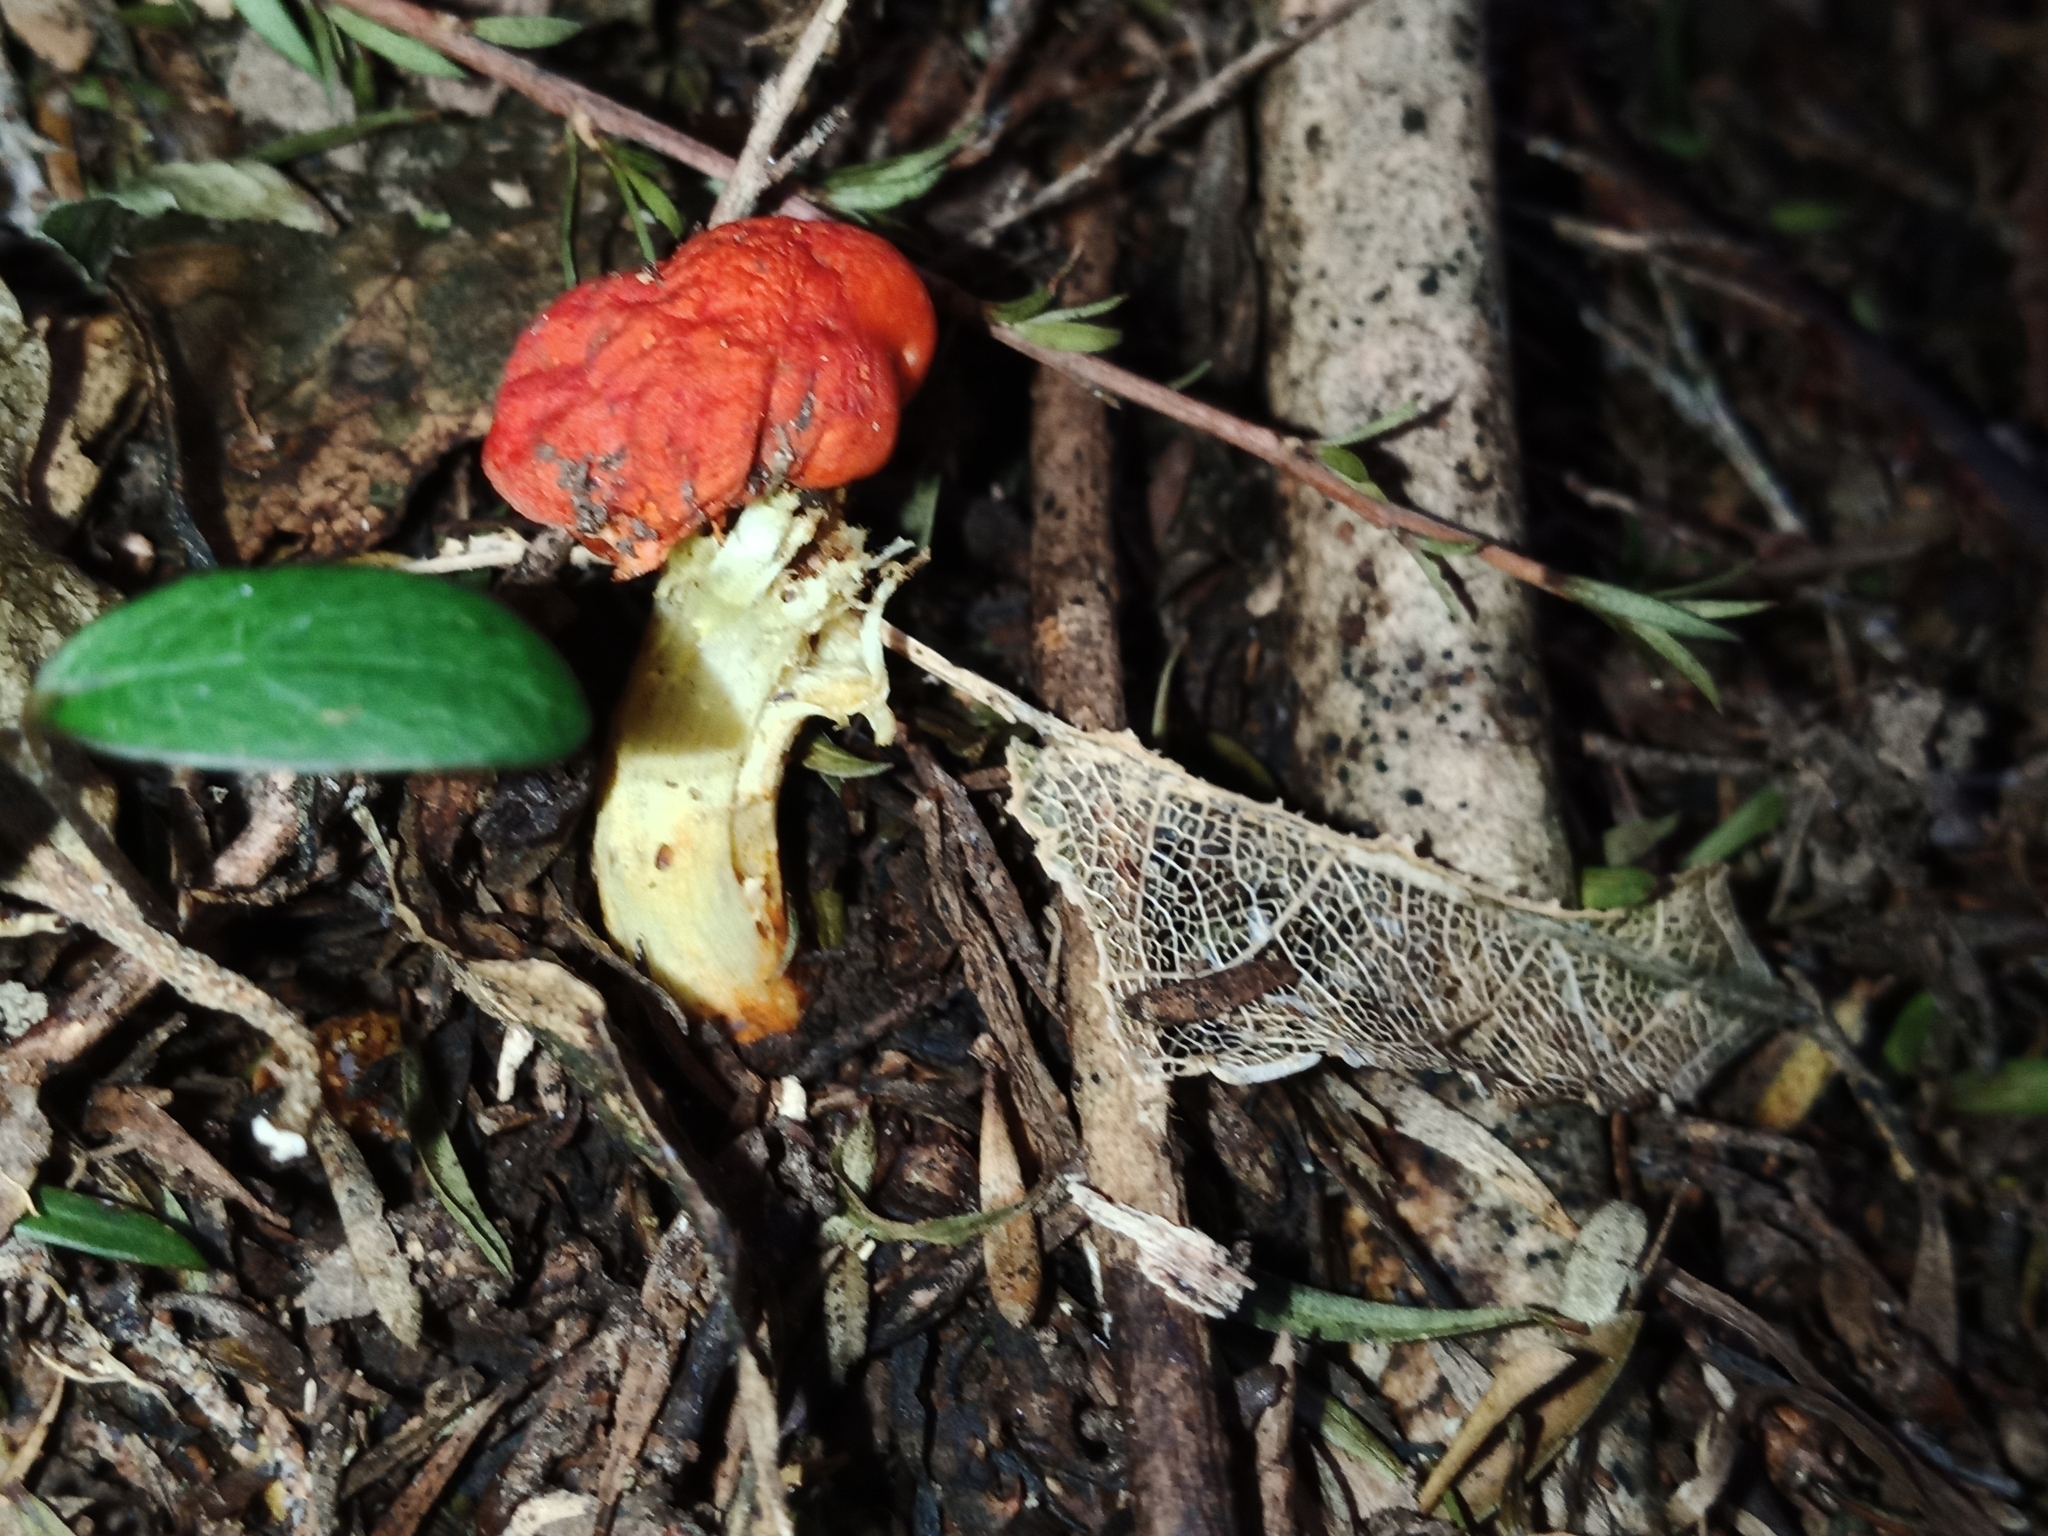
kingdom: Fungi
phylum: Basidiomycota
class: Agaricomycetes
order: Agaricales
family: Strophariaceae
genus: Leratiomyces
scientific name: Leratiomyces erythrocephalus
